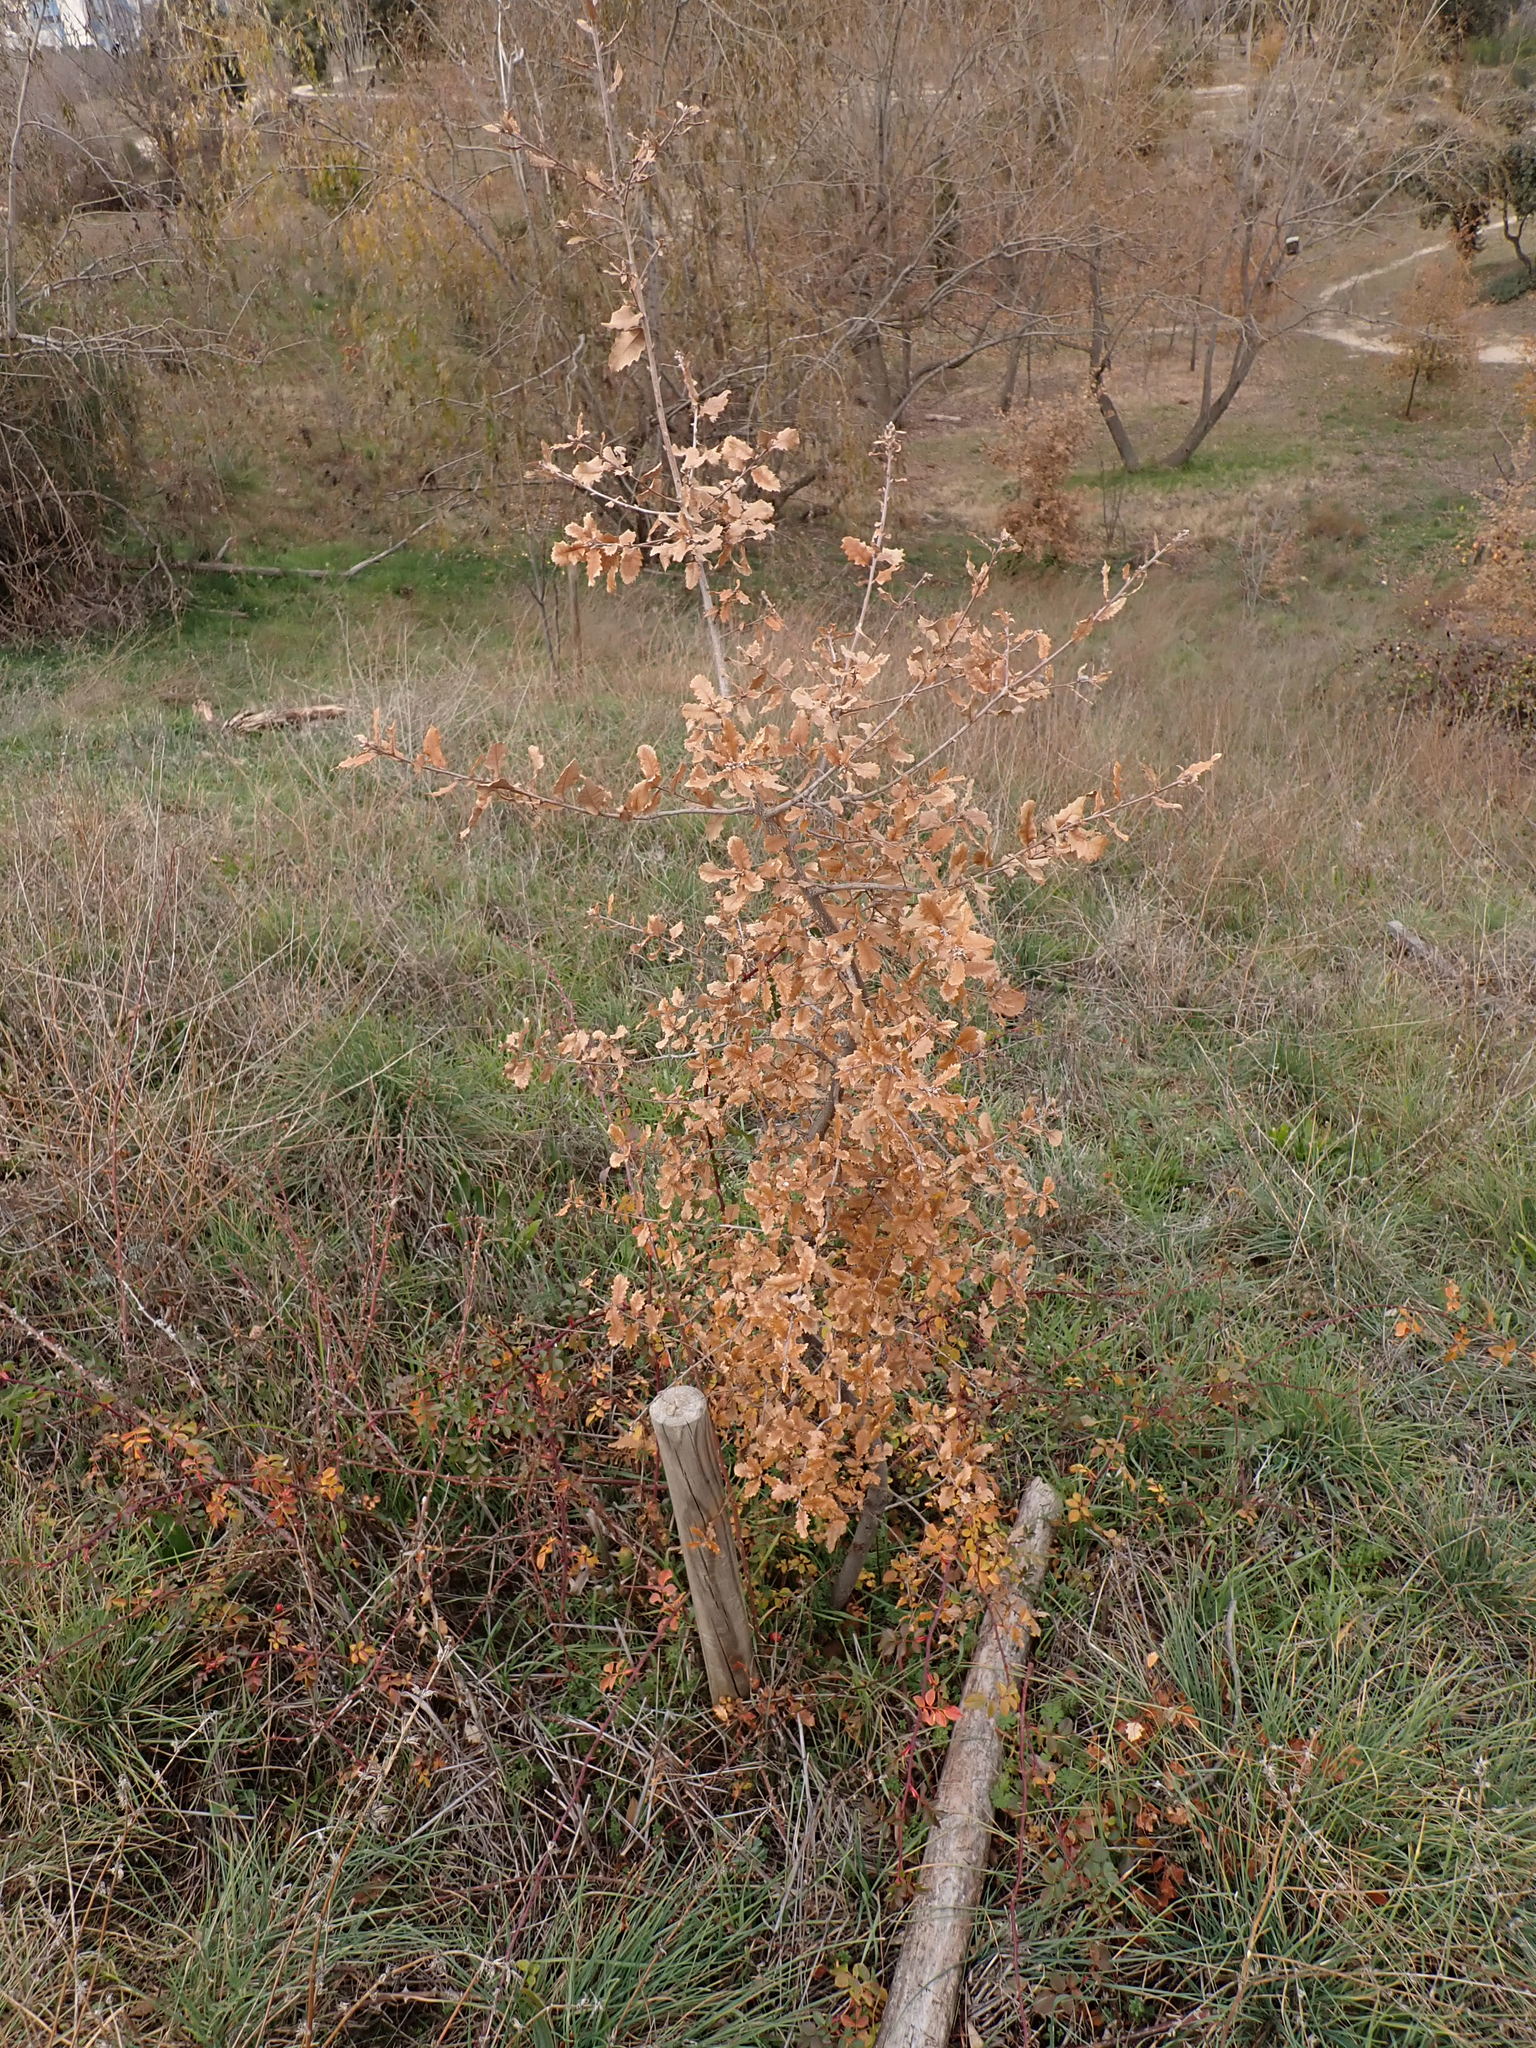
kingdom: Plantae
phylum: Tracheophyta
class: Magnoliopsida
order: Fagales
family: Fagaceae
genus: Quercus
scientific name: Quercus faginea
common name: Gall oak tree
